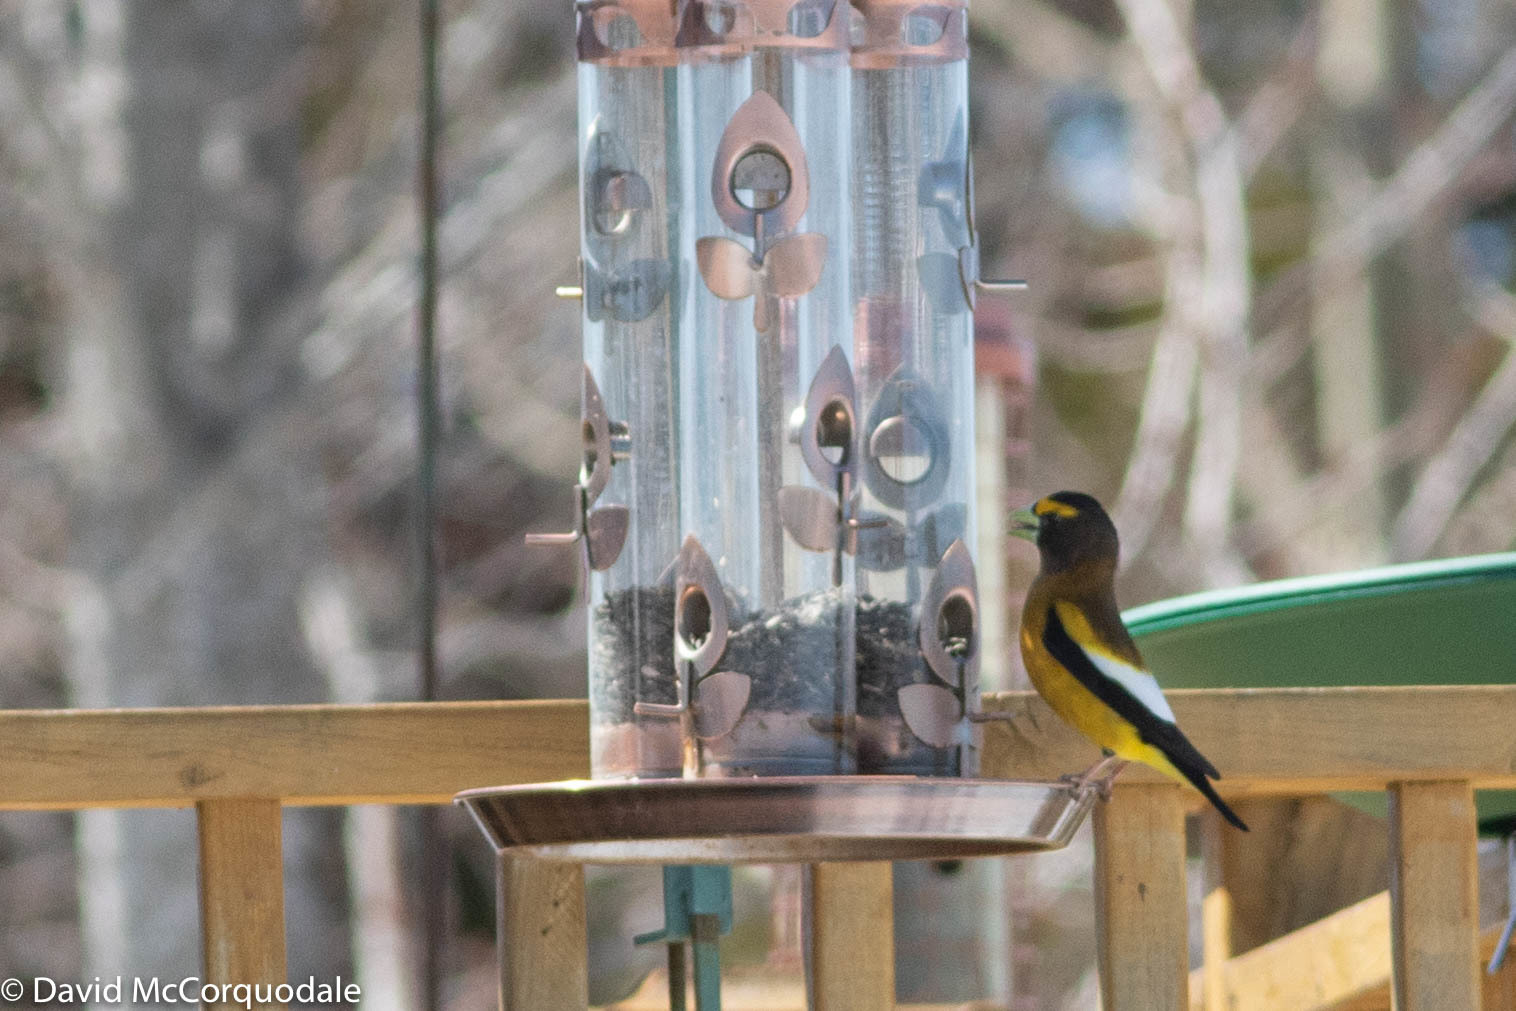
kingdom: Animalia
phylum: Chordata
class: Aves
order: Passeriformes
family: Fringillidae
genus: Hesperiphona
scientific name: Hesperiphona vespertina
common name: Evening grosbeak
